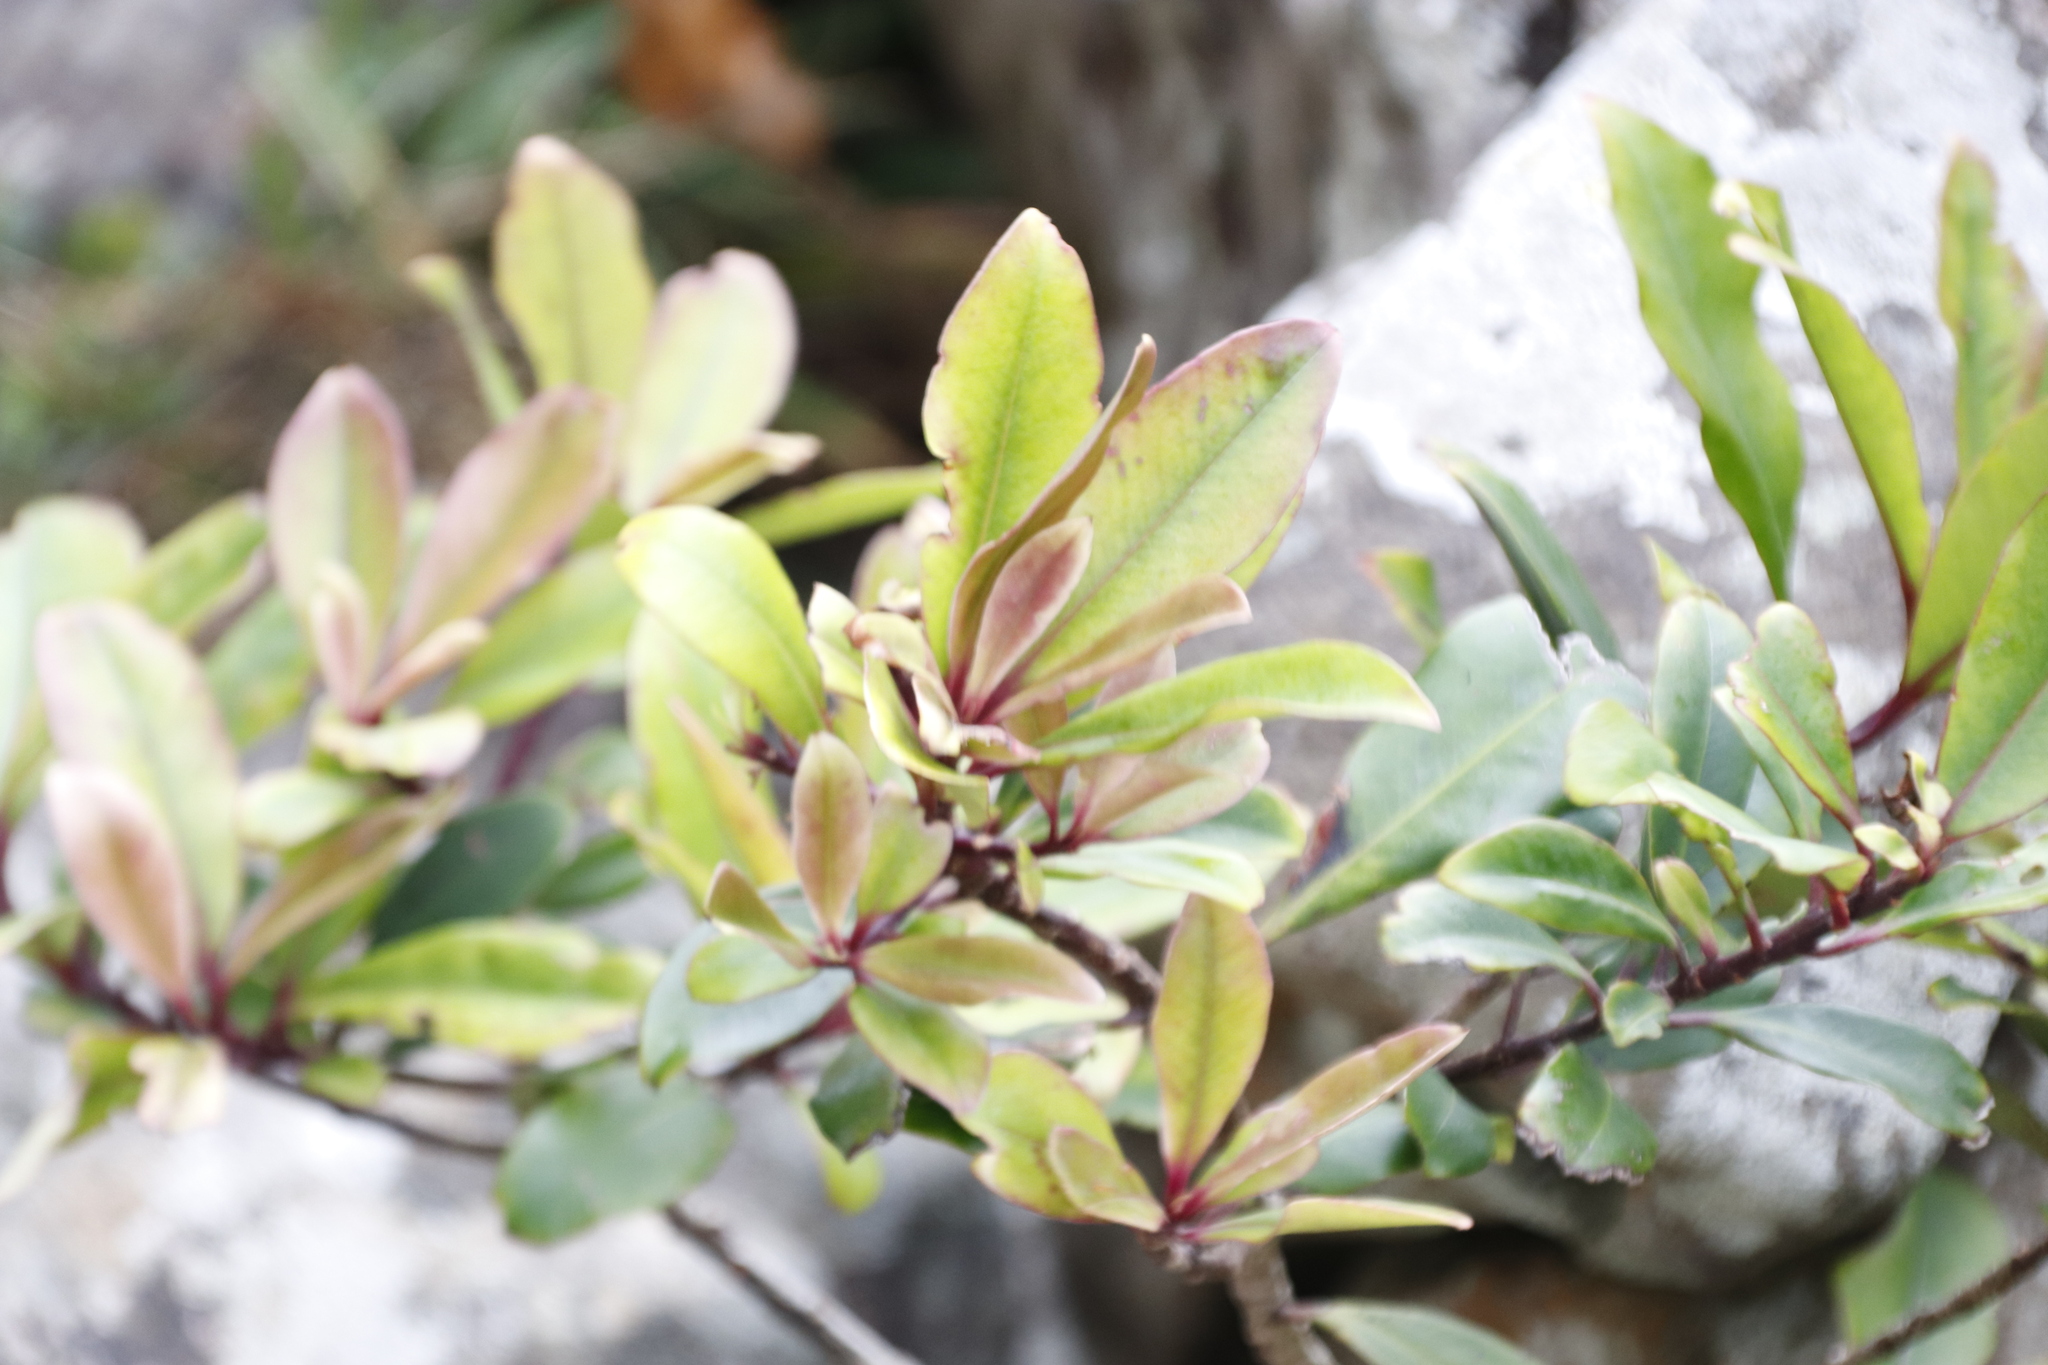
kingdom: Plantae
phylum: Tracheophyta
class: Magnoliopsida
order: Ericales
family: Primulaceae
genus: Myrsine
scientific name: Myrsine melanophloeos
